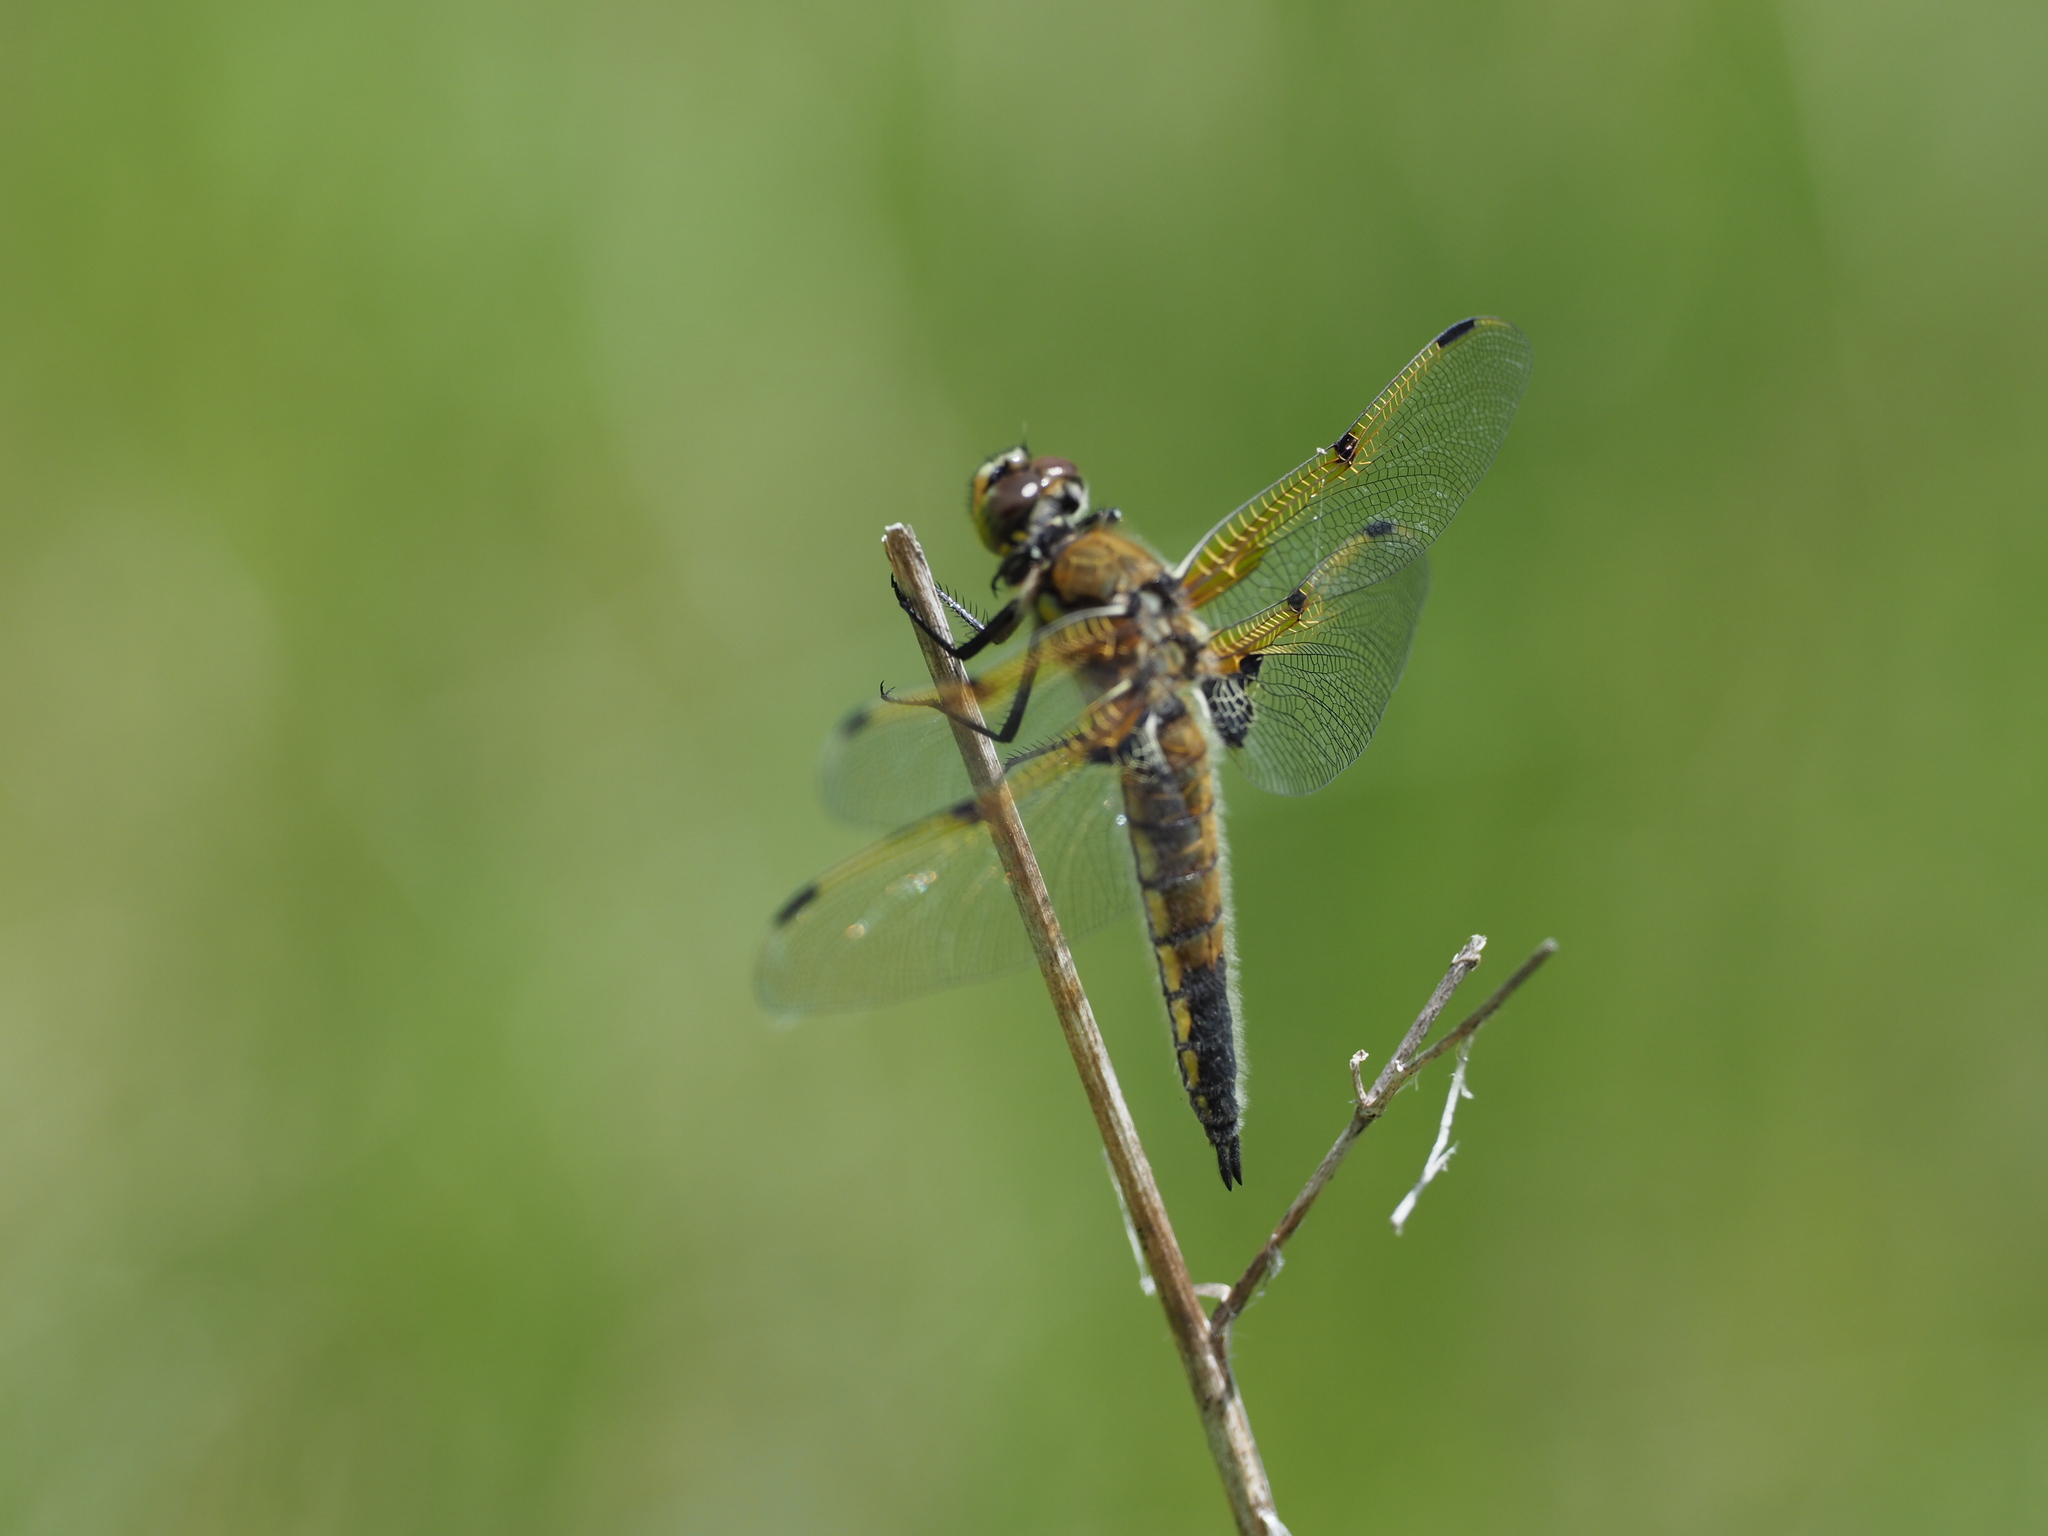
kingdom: Animalia
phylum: Arthropoda
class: Insecta
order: Odonata
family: Libellulidae
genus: Libellula
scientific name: Libellula quadrimaculata
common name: Four-spotted chaser
